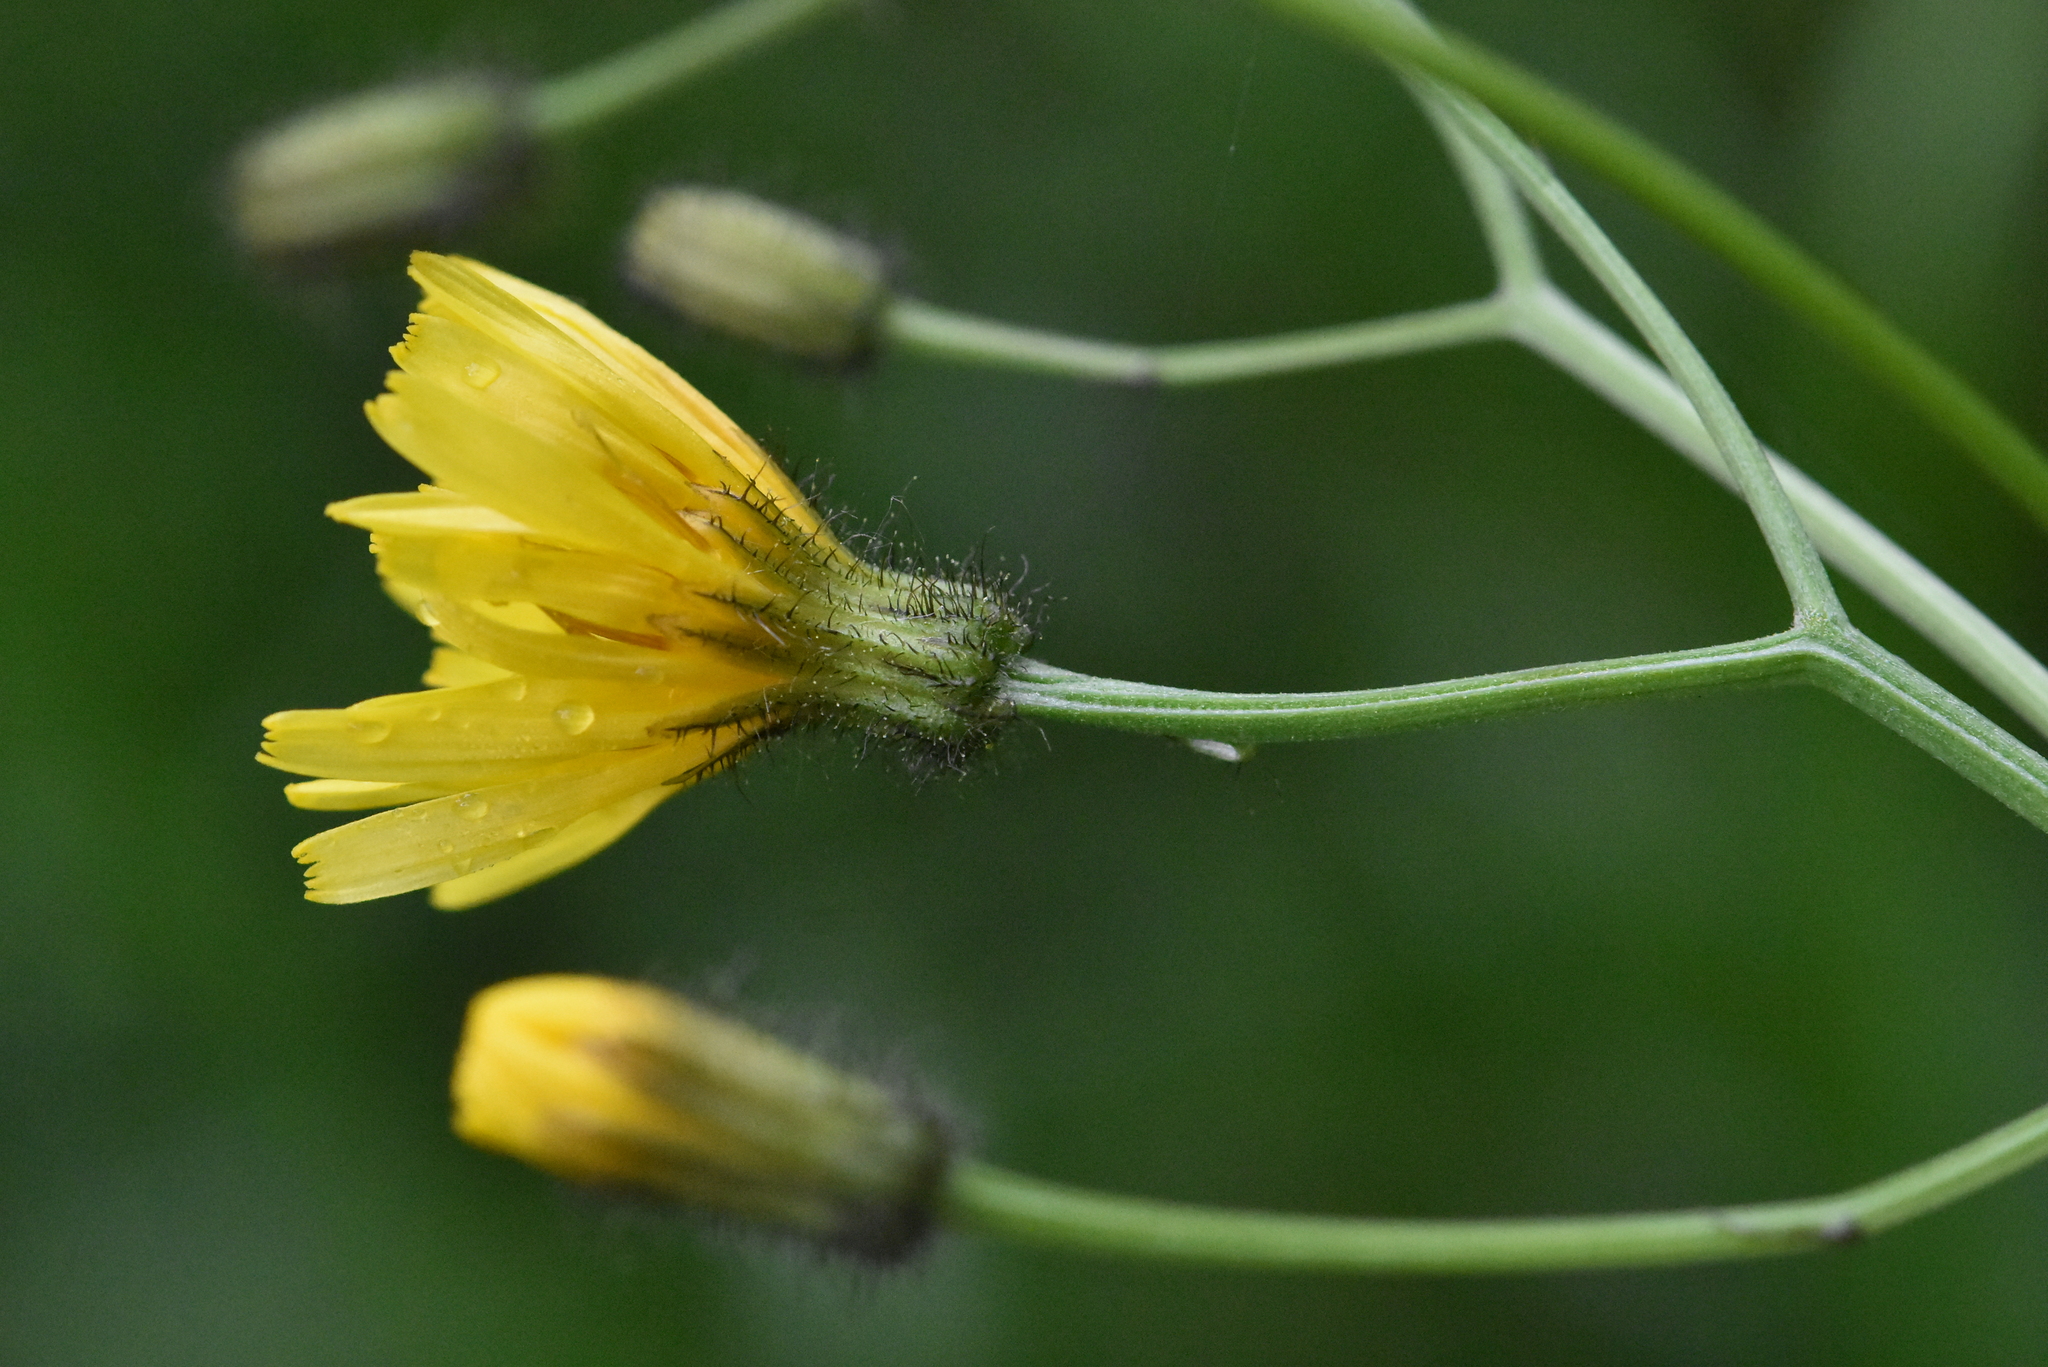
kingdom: Plantae
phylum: Tracheophyta
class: Magnoliopsida
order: Asterales
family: Asteraceae
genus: Crepis
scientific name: Crepis paludosa
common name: Marsh hawk's-beard
